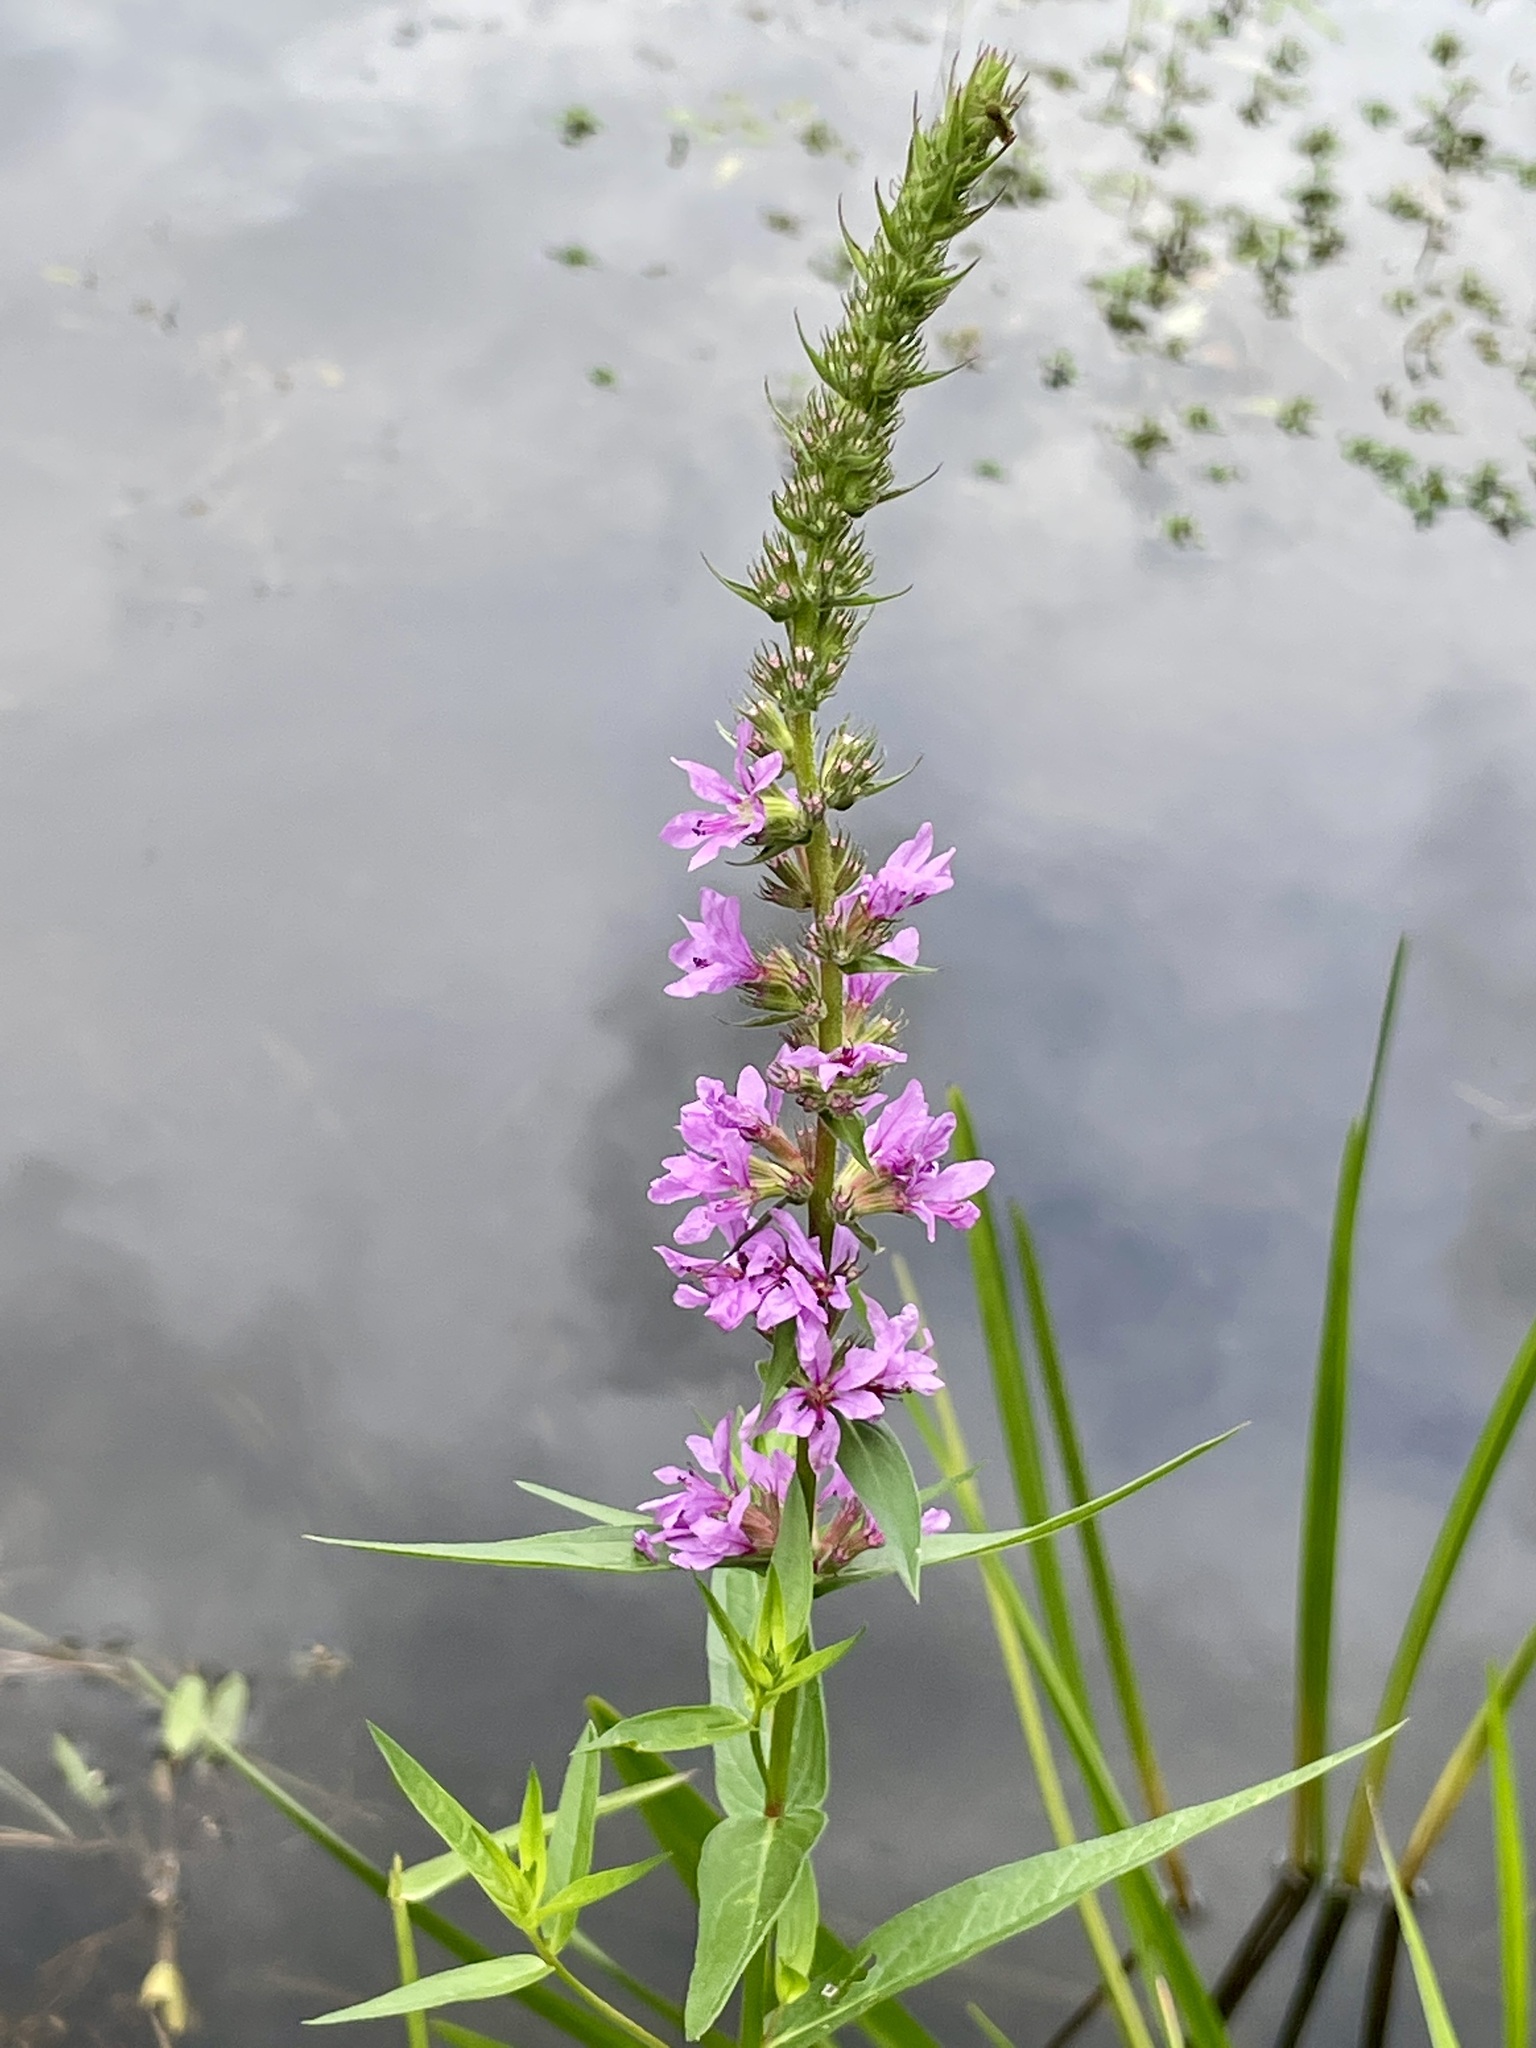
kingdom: Plantae
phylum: Tracheophyta
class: Magnoliopsida
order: Myrtales
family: Lythraceae
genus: Lythrum
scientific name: Lythrum salicaria
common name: Purple loosestrife
